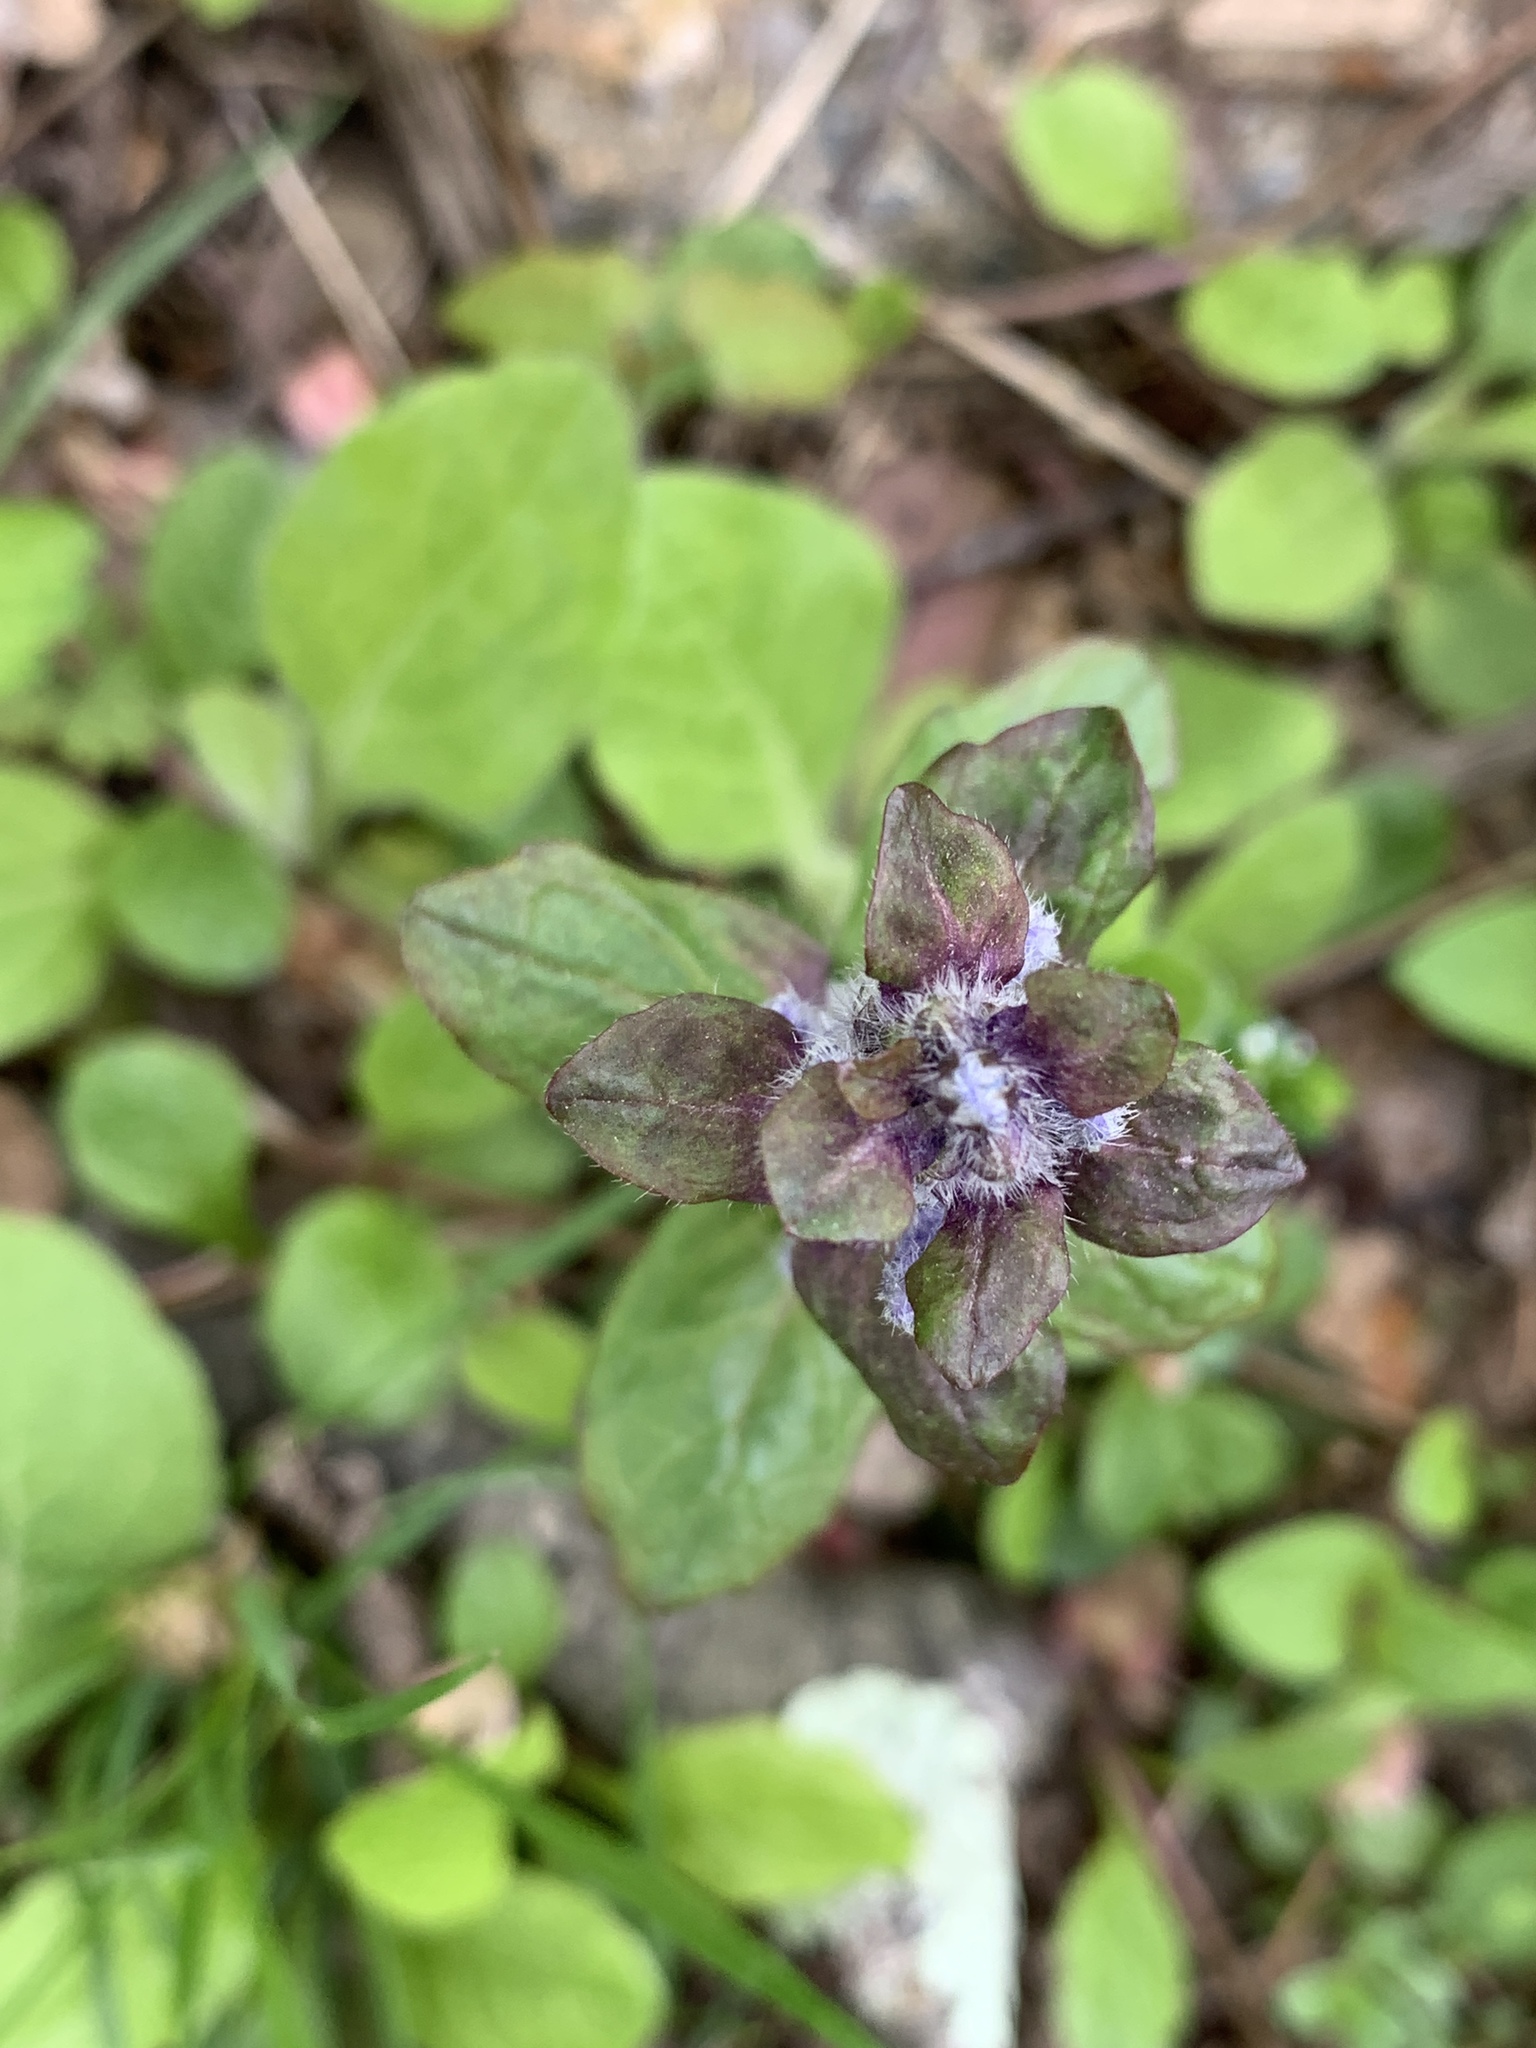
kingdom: Plantae
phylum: Tracheophyta
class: Magnoliopsida
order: Lamiales
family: Lamiaceae
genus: Ajuga
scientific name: Ajuga reptans
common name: Bugle
